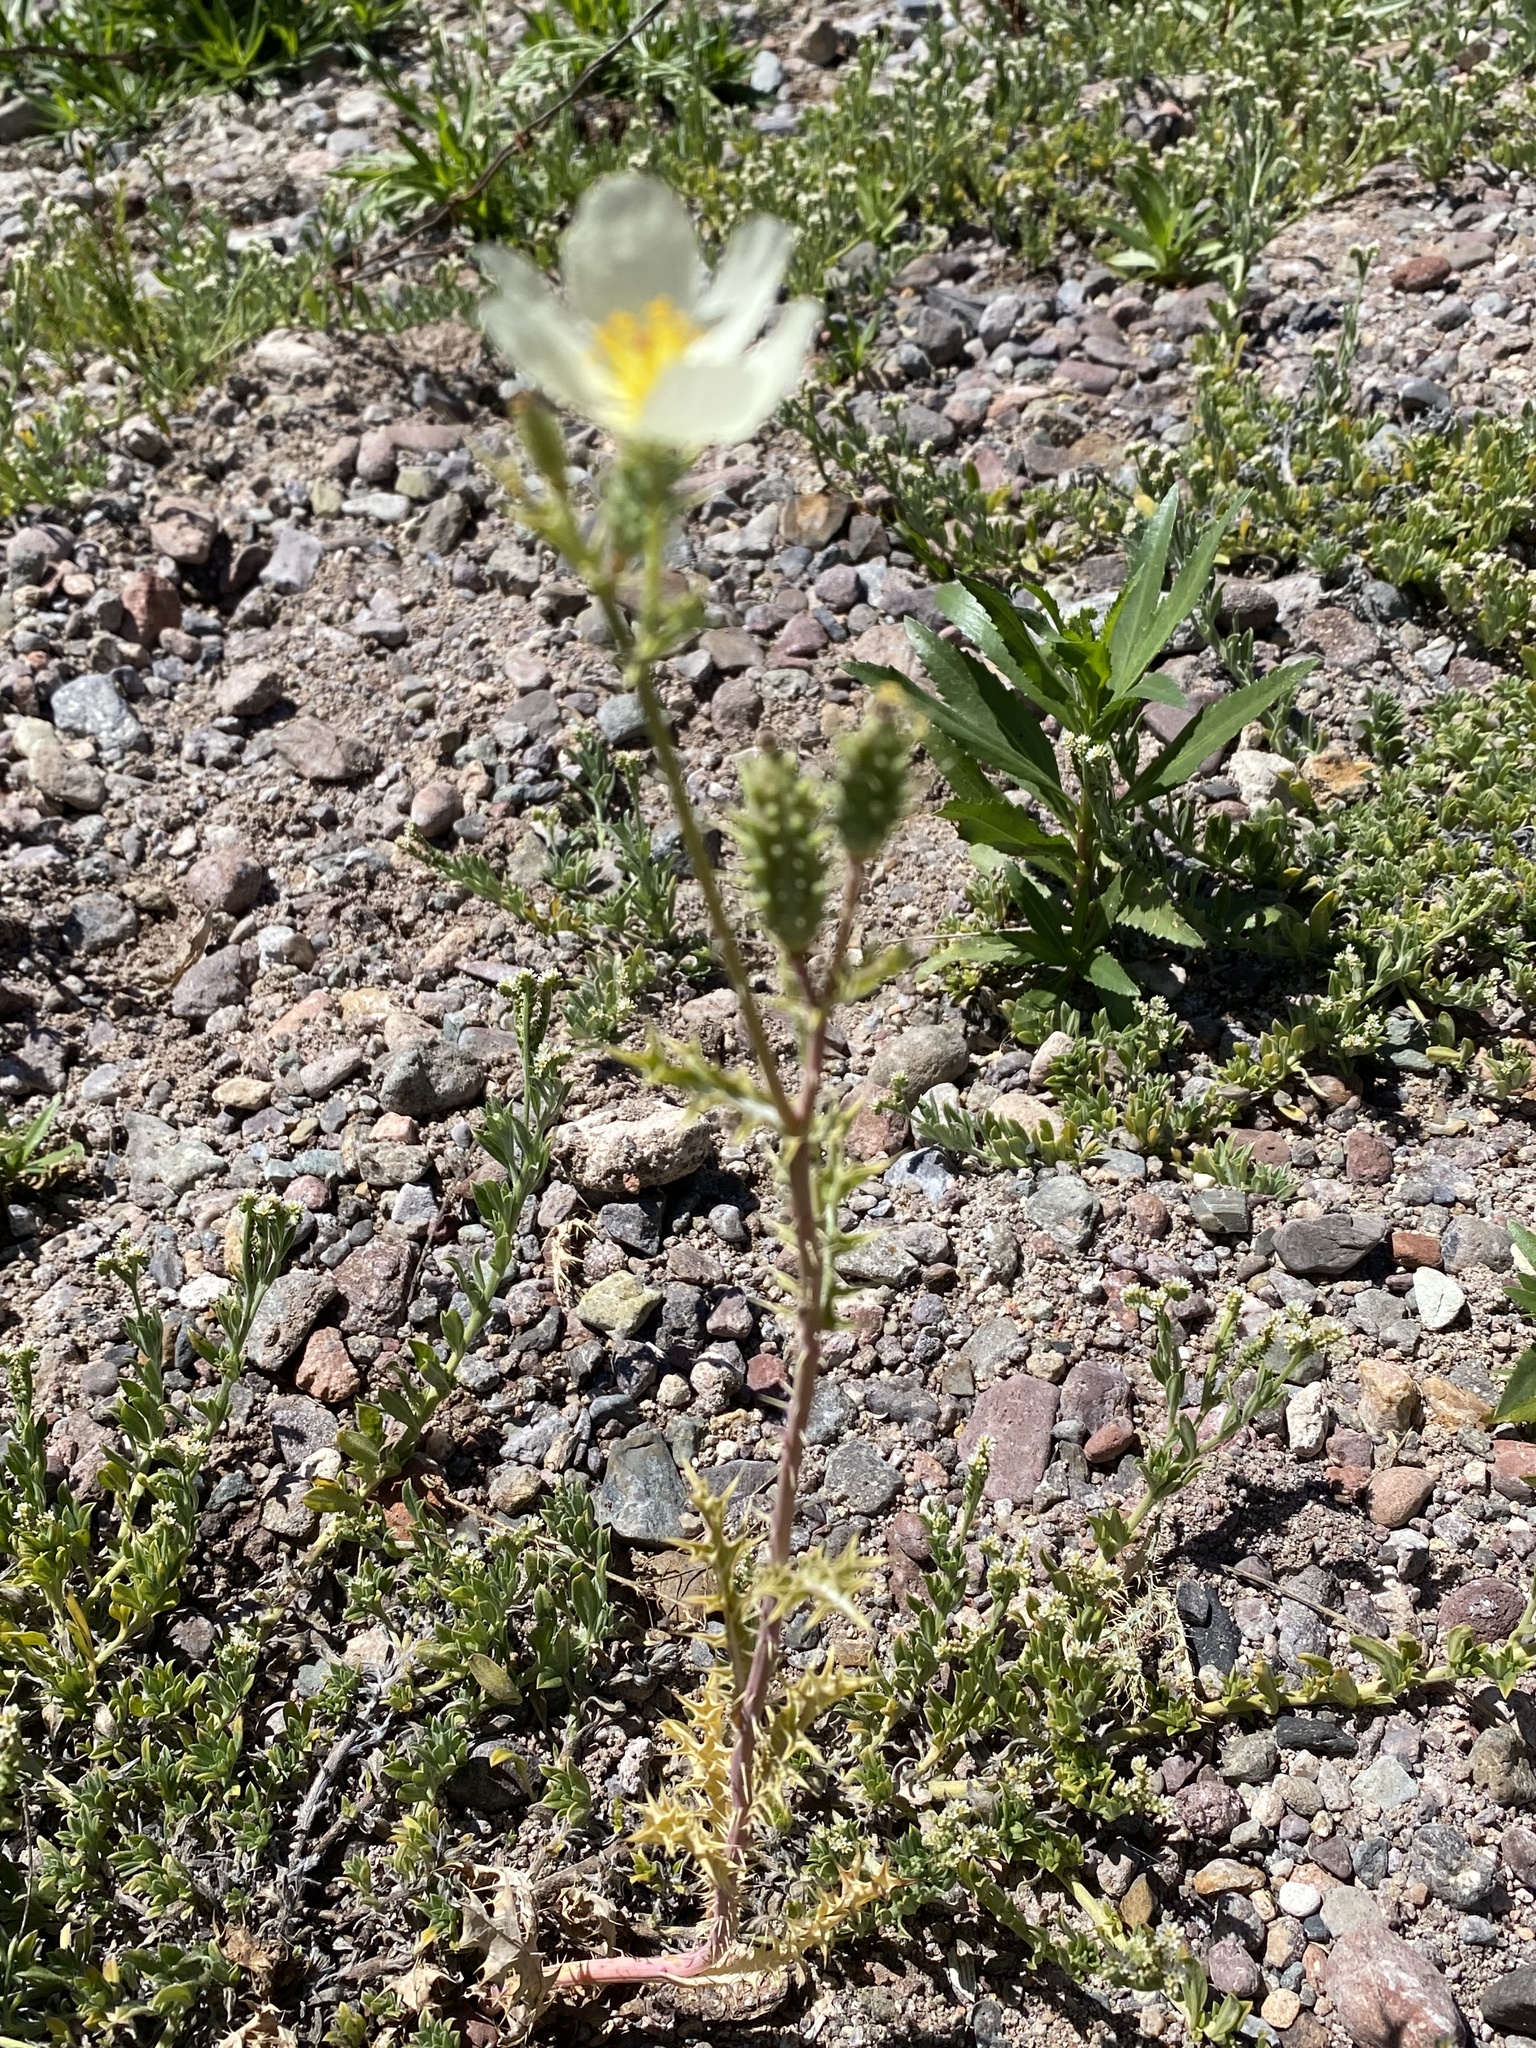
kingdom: Plantae
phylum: Tracheophyta
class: Magnoliopsida
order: Ranunculales
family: Papaveraceae
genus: Argemone
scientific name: Argemone ochroleuca
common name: White-flower mexican-poppy
